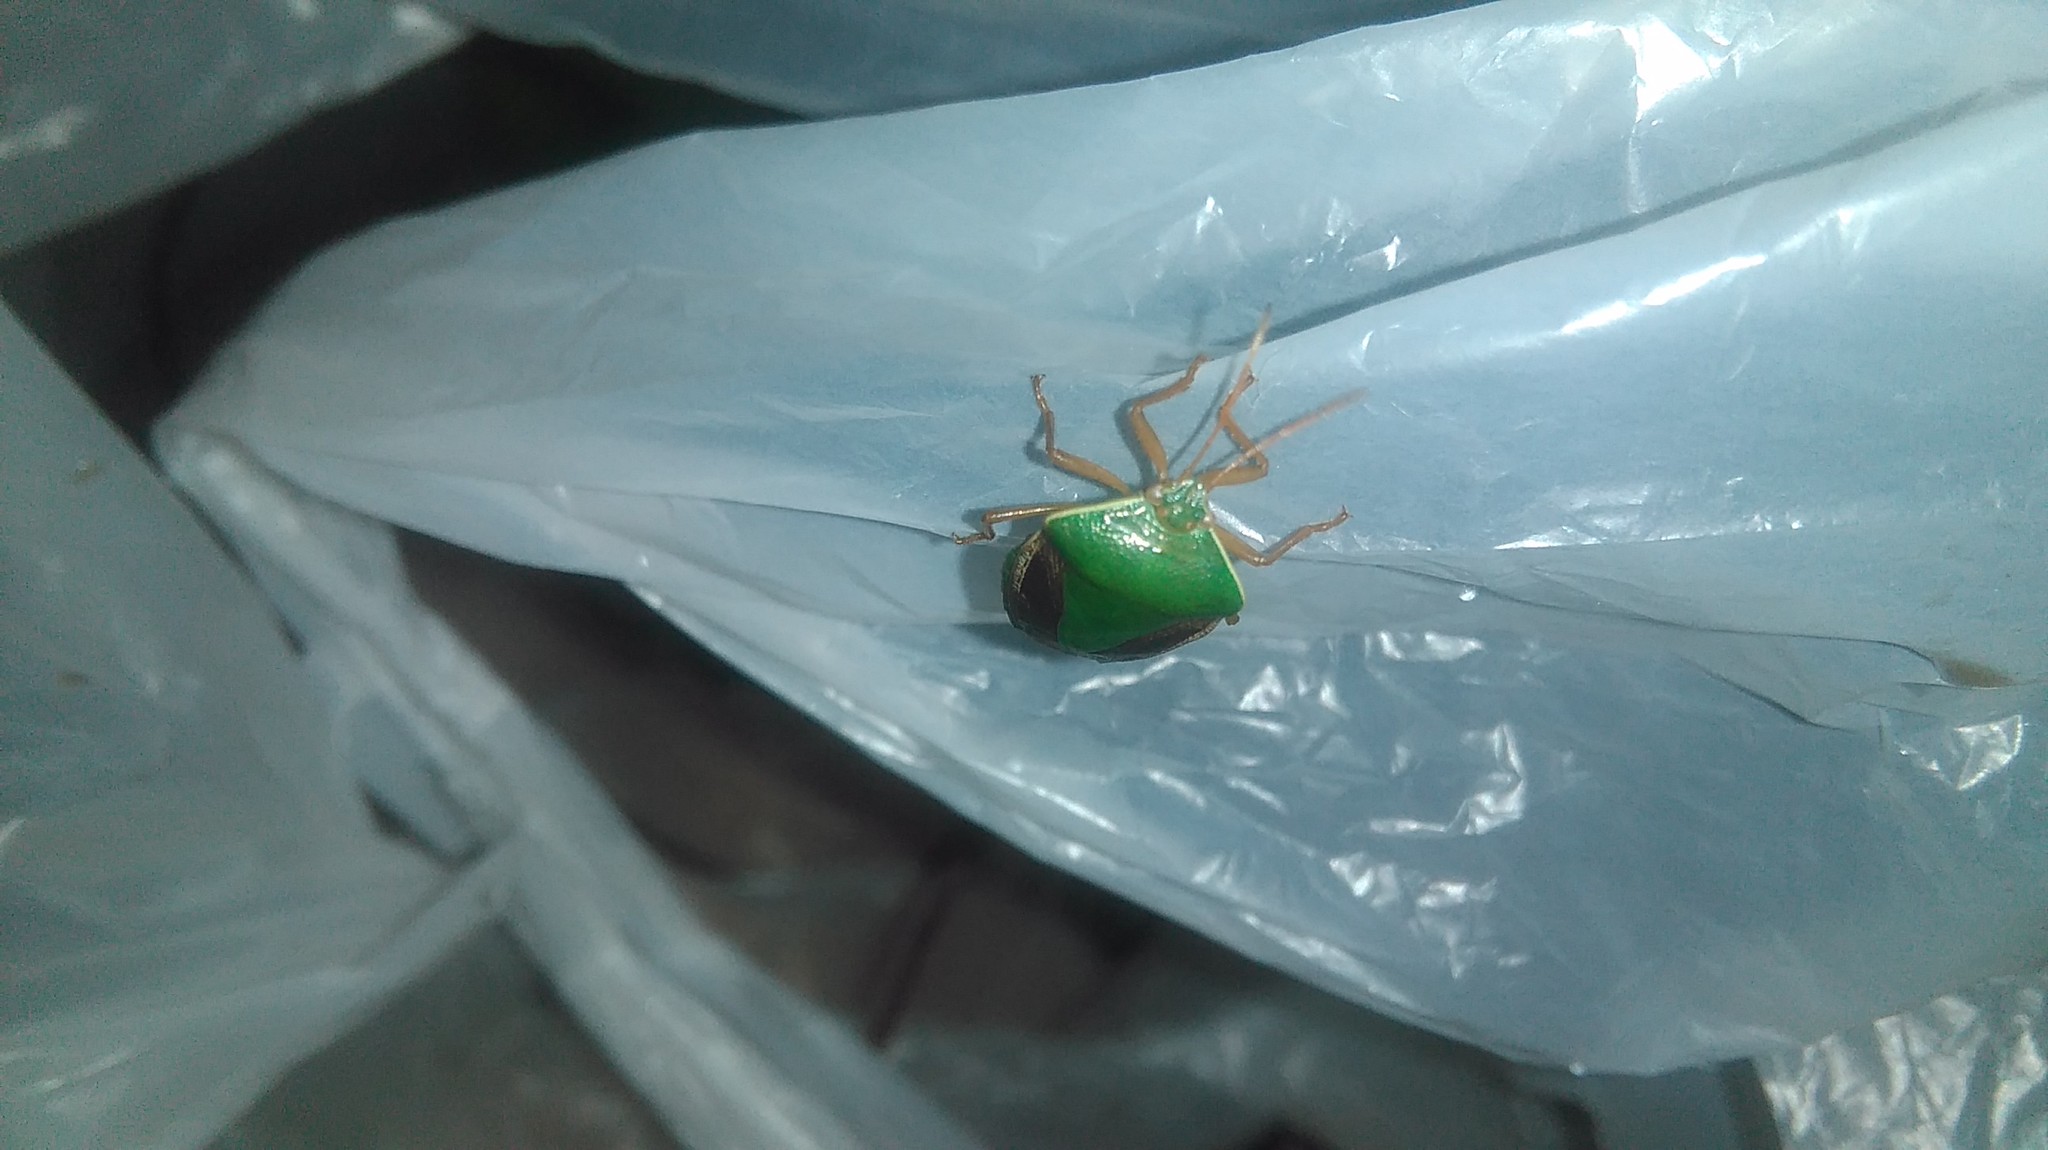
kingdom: Animalia
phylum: Arthropoda
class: Insecta
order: Hemiptera
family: Pentatomidae
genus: Edessa
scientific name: Edessa meditabunda
